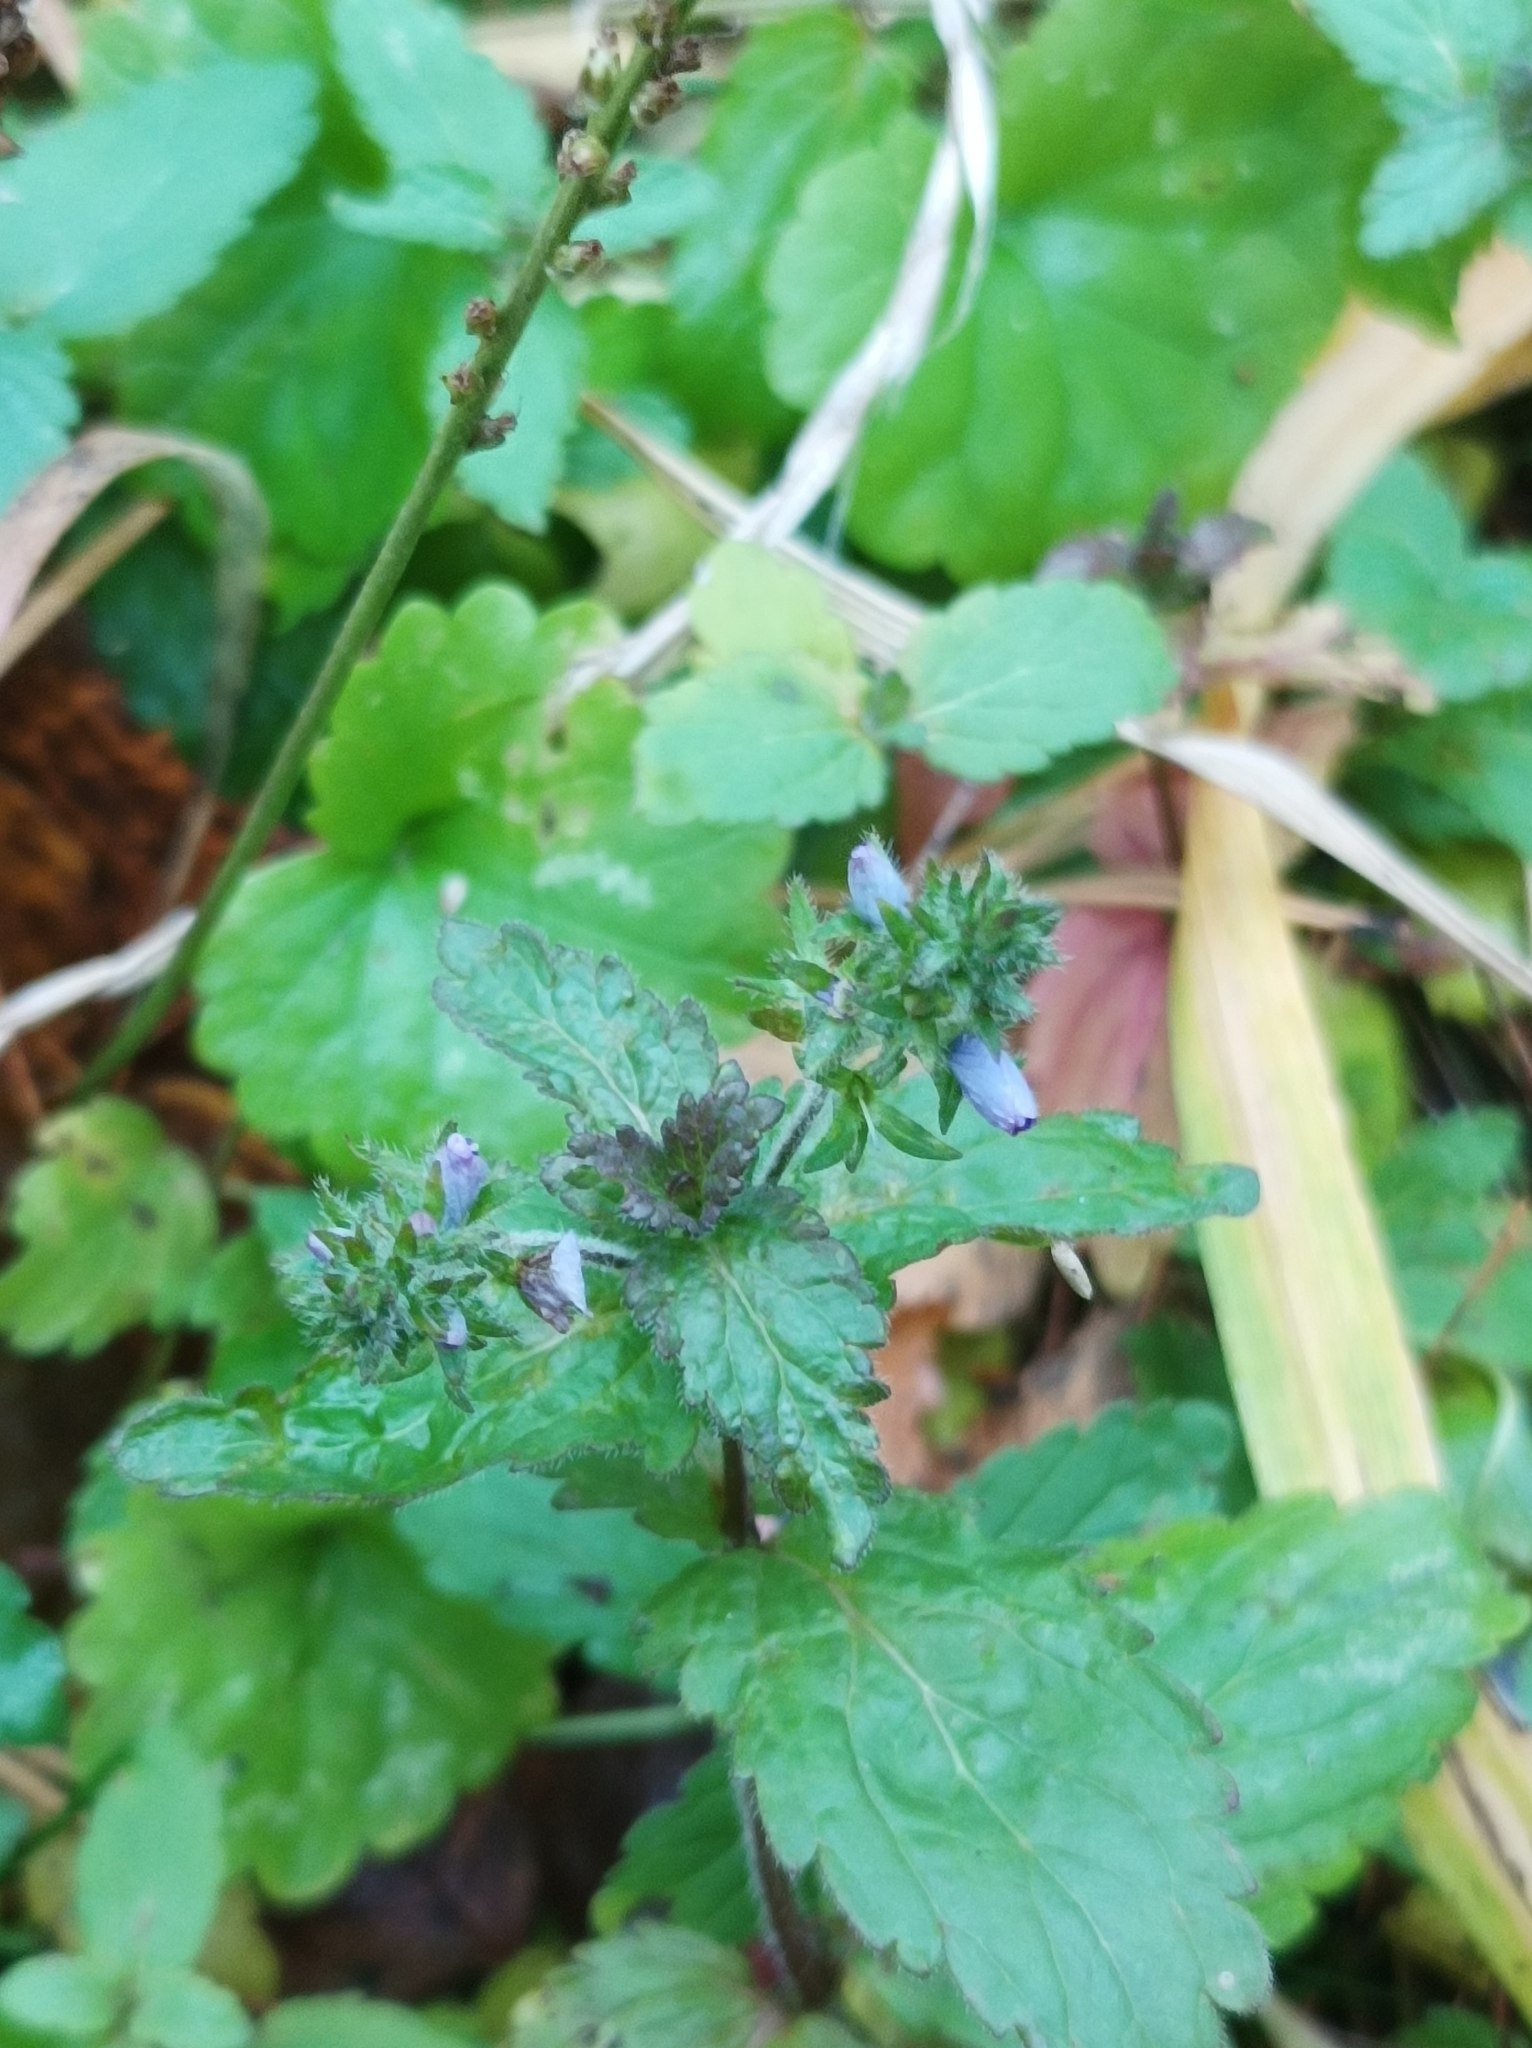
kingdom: Plantae
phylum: Tracheophyta
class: Magnoliopsida
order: Lamiales
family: Plantaginaceae
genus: Veronica
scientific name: Veronica chamaedrys
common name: Germander speedwell
